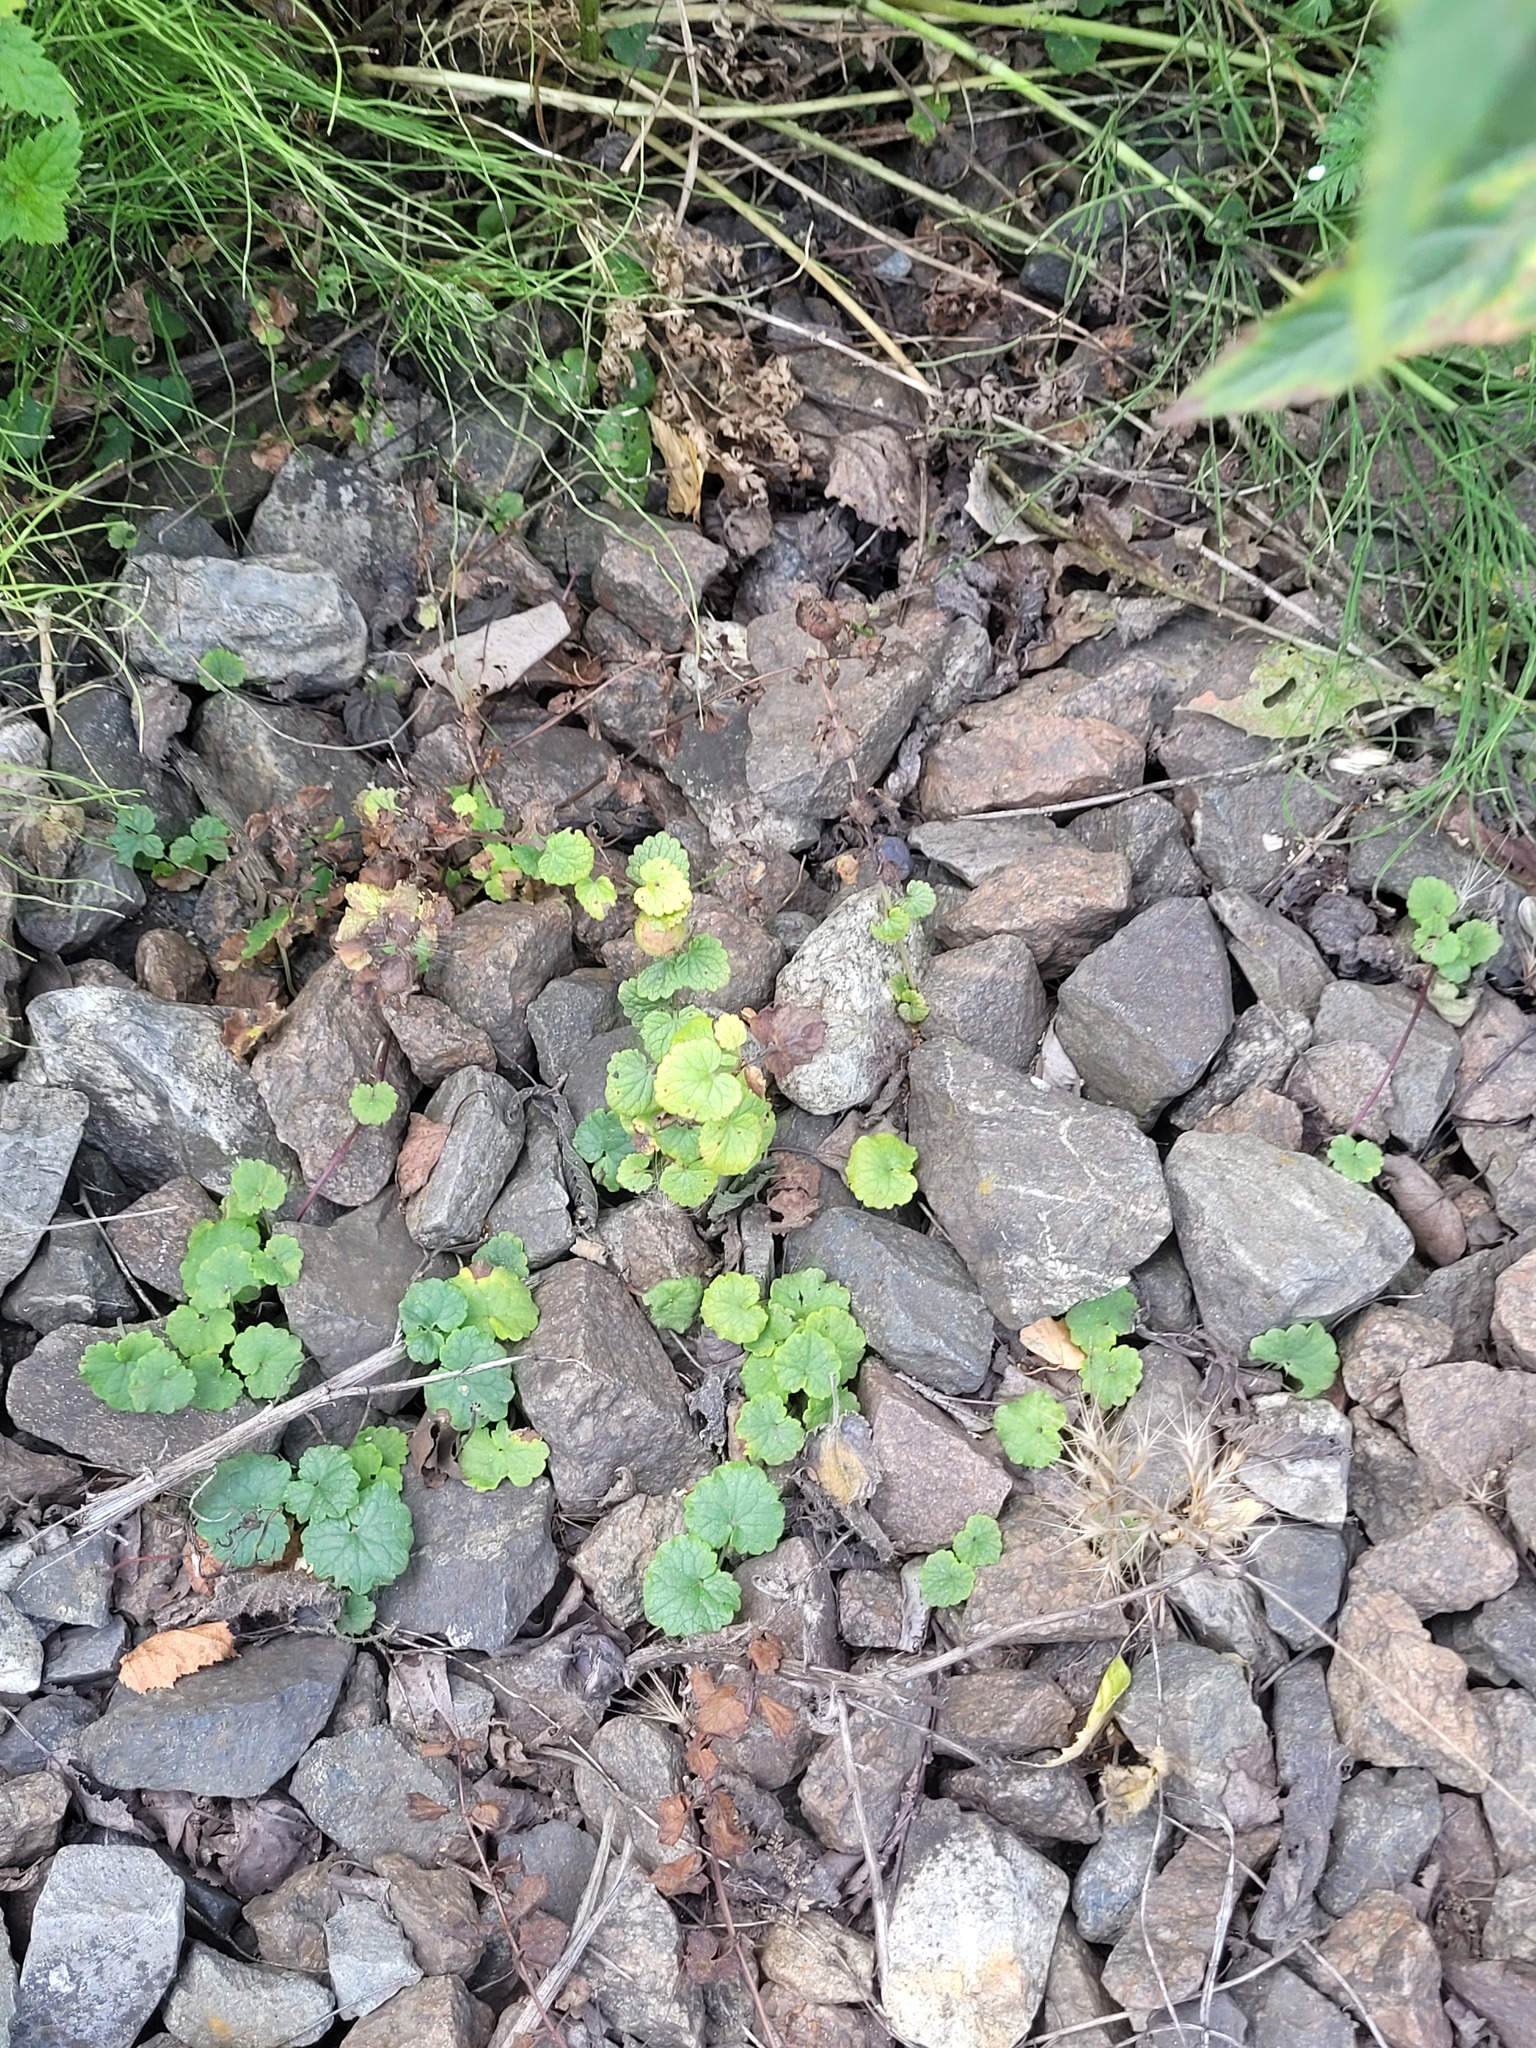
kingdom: Plantae
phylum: Tracheophyta
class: Magnoliopsida
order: Lamiales
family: Lamiaceae
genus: Glechoma
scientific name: Glechoma hederacea
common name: Ground ivy
